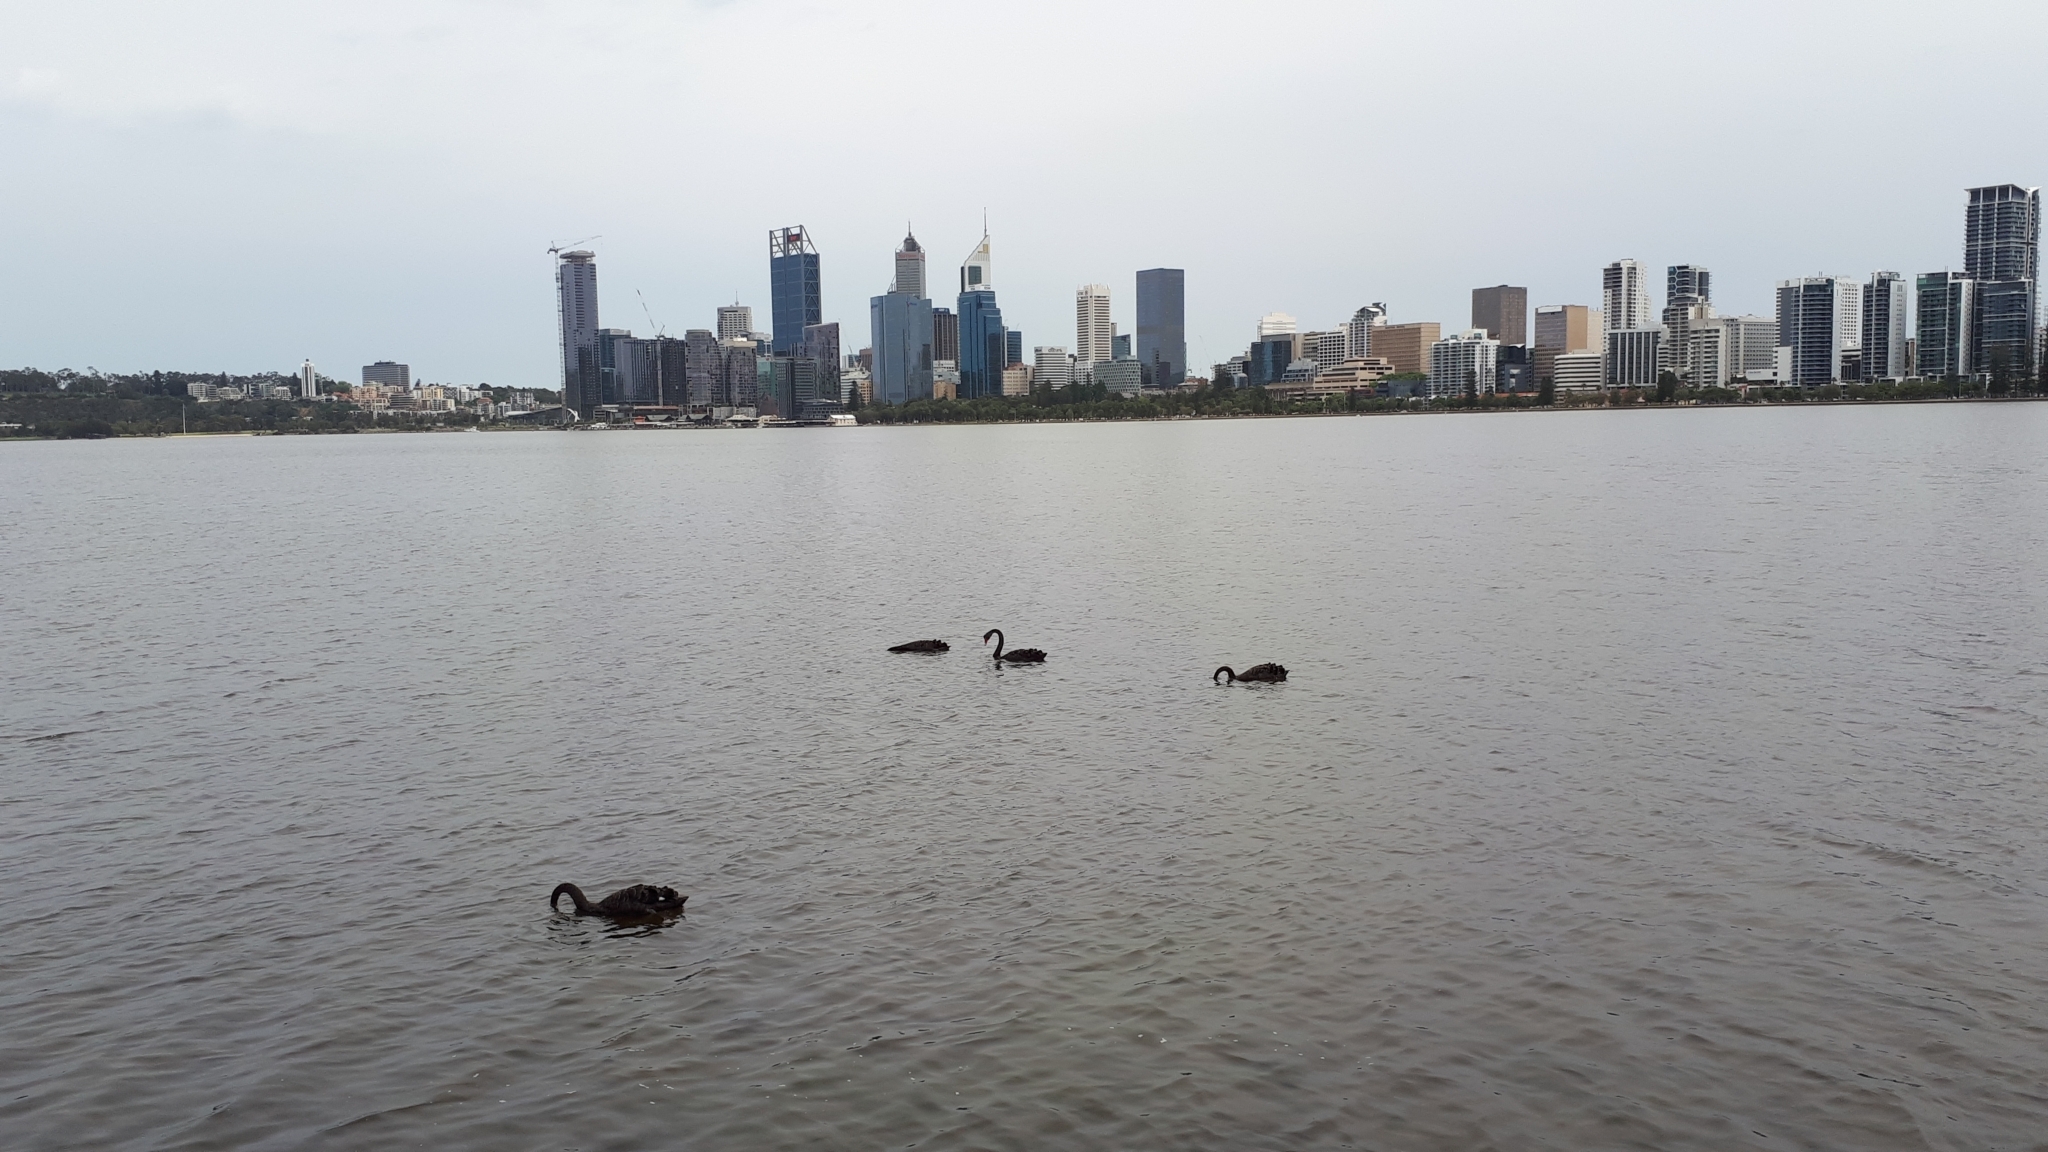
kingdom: Animalia
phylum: Chordata
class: Aves
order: Anseriformes
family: Anatidae
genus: Cygnus
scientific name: Cygnus atratus
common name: Black swan
